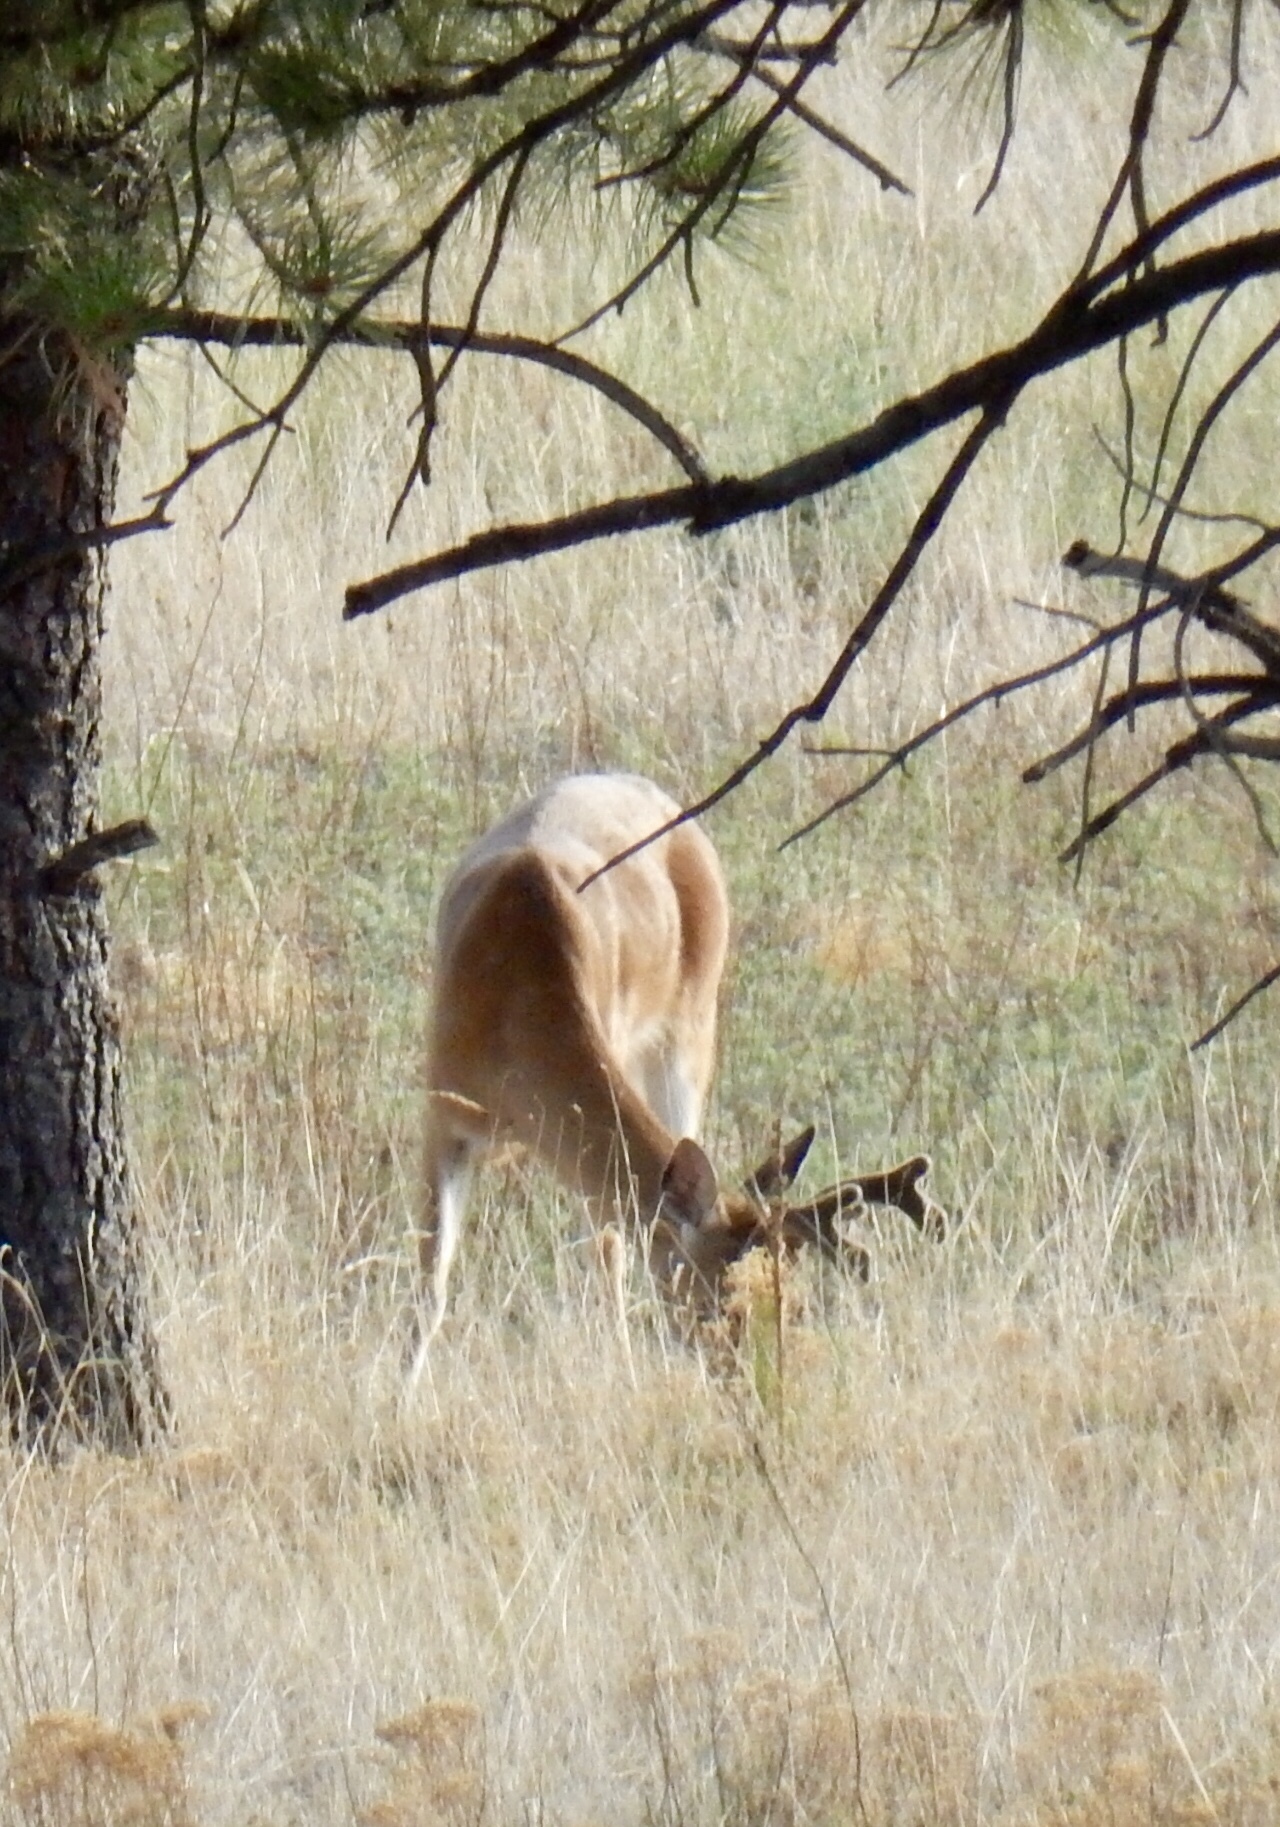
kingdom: Animalia
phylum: Chordata
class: Mammalia
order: Artiodactyla
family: Cervidae
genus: Odocoileus
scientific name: Odocoileus virginianus
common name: White-tailed deer
